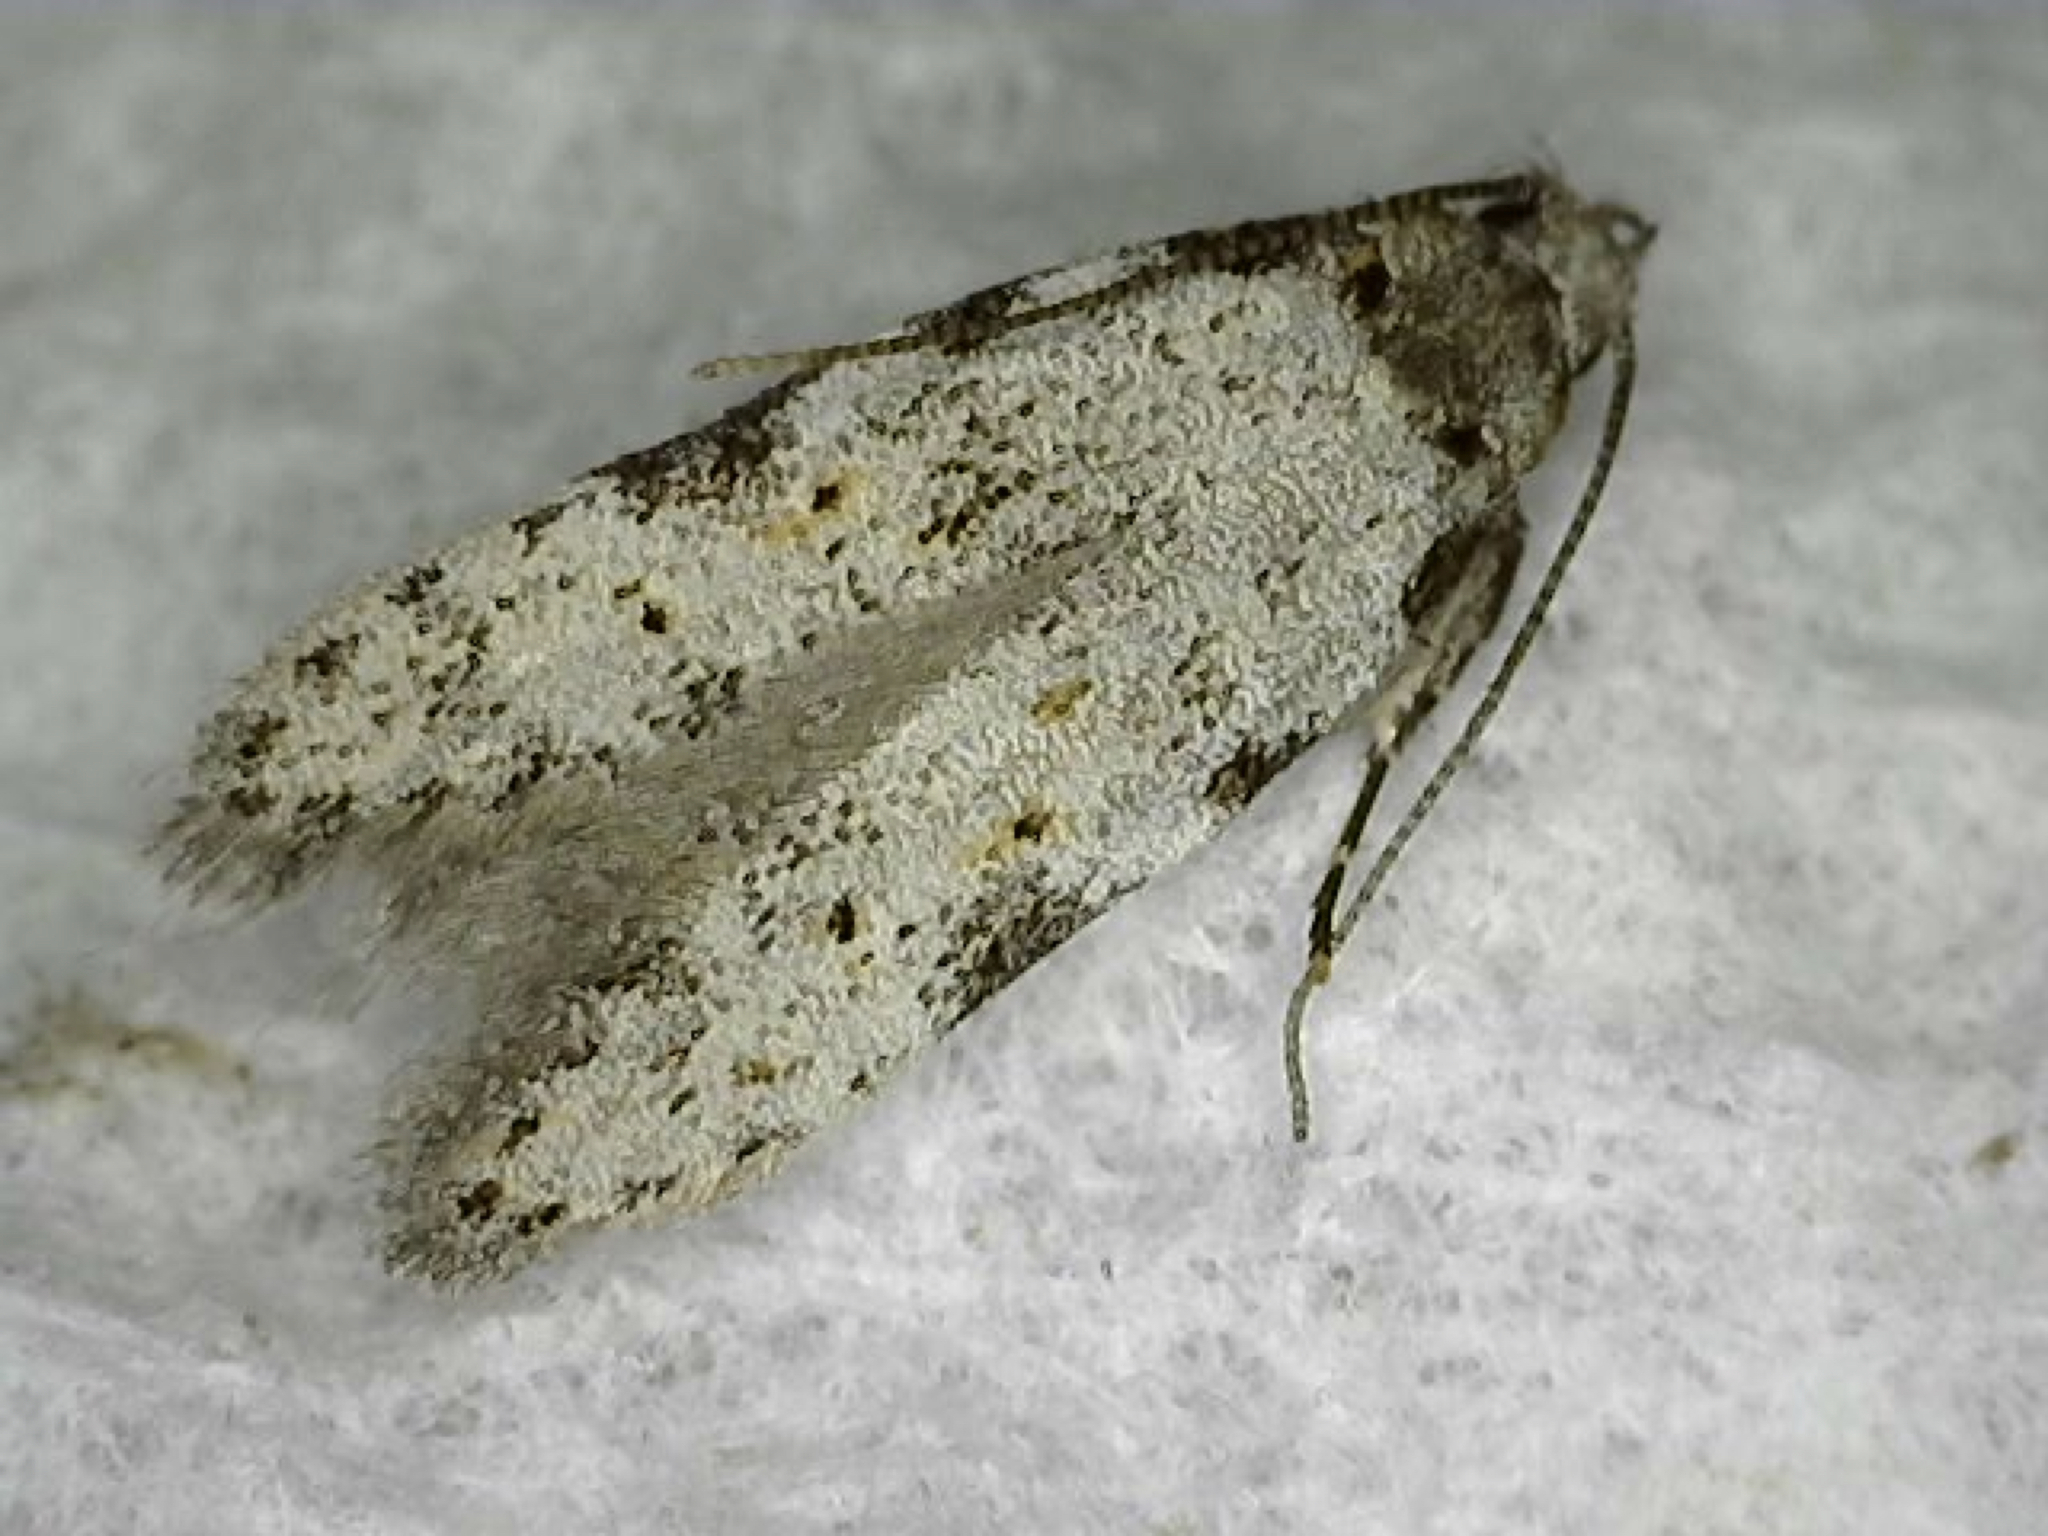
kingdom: Animalia
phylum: Arthropoda
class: Insecta
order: Lepidoptera
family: Autostichidae
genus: Taygete
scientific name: Taygete attributella
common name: Triangle-marked twirler moth
